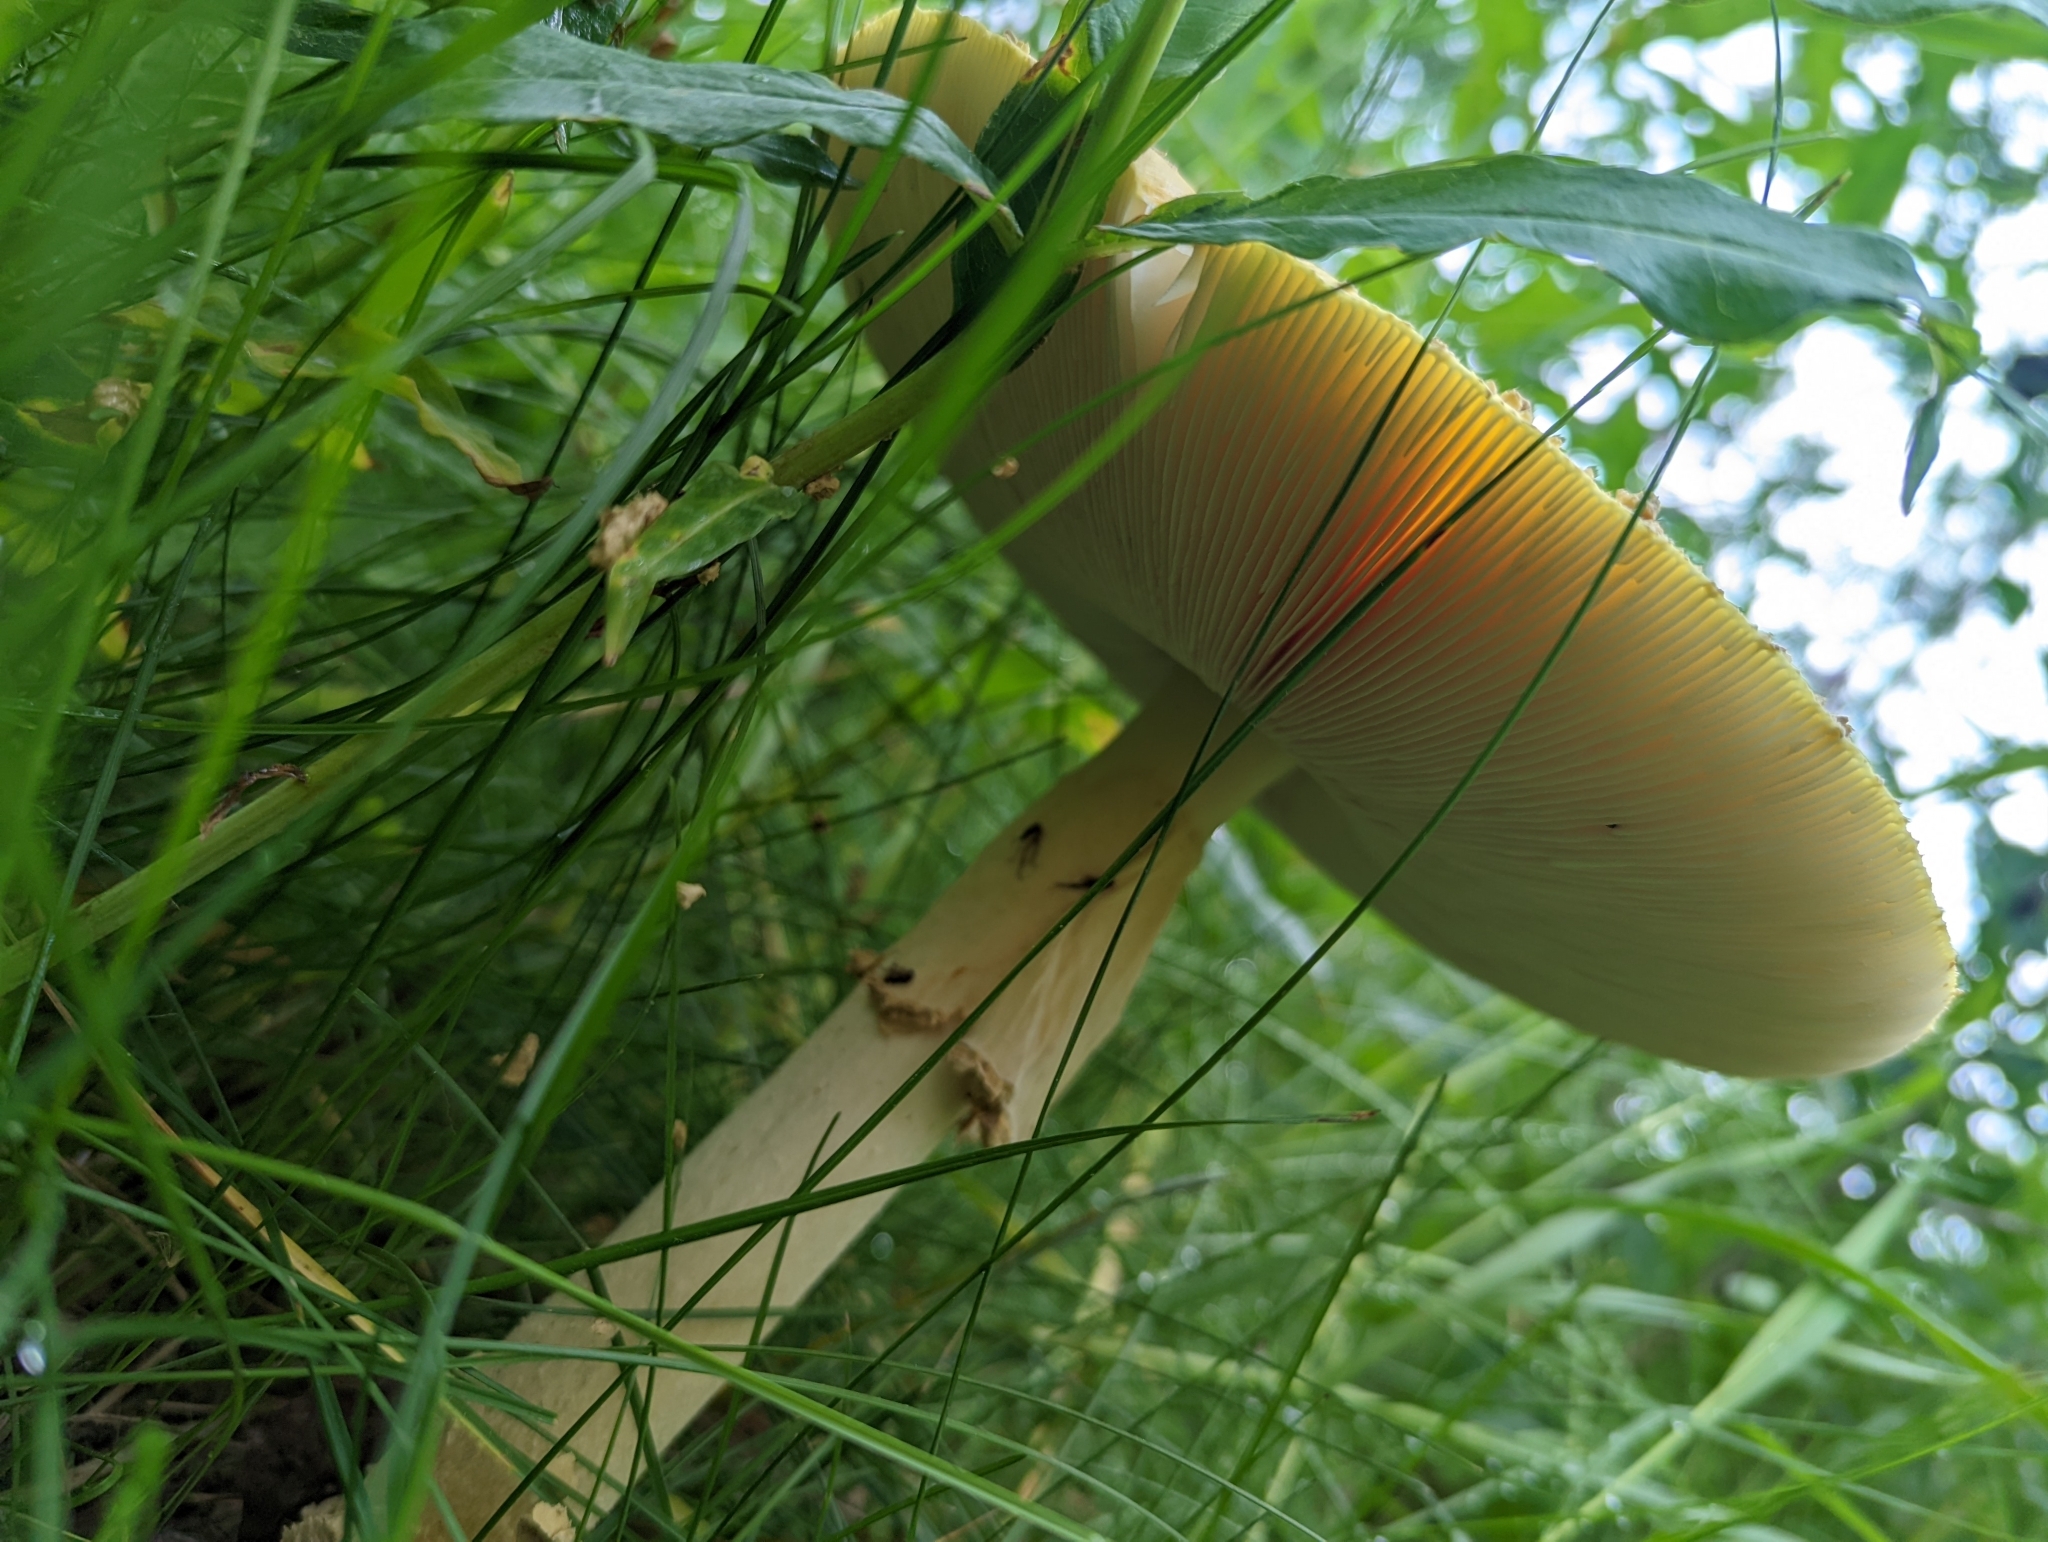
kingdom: Fungi
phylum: Basidiomycota
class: Agaricomycetes
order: Agaricales
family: Amanitaceae
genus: Amanita
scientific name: Amanita muscaria
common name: Fly agaric
